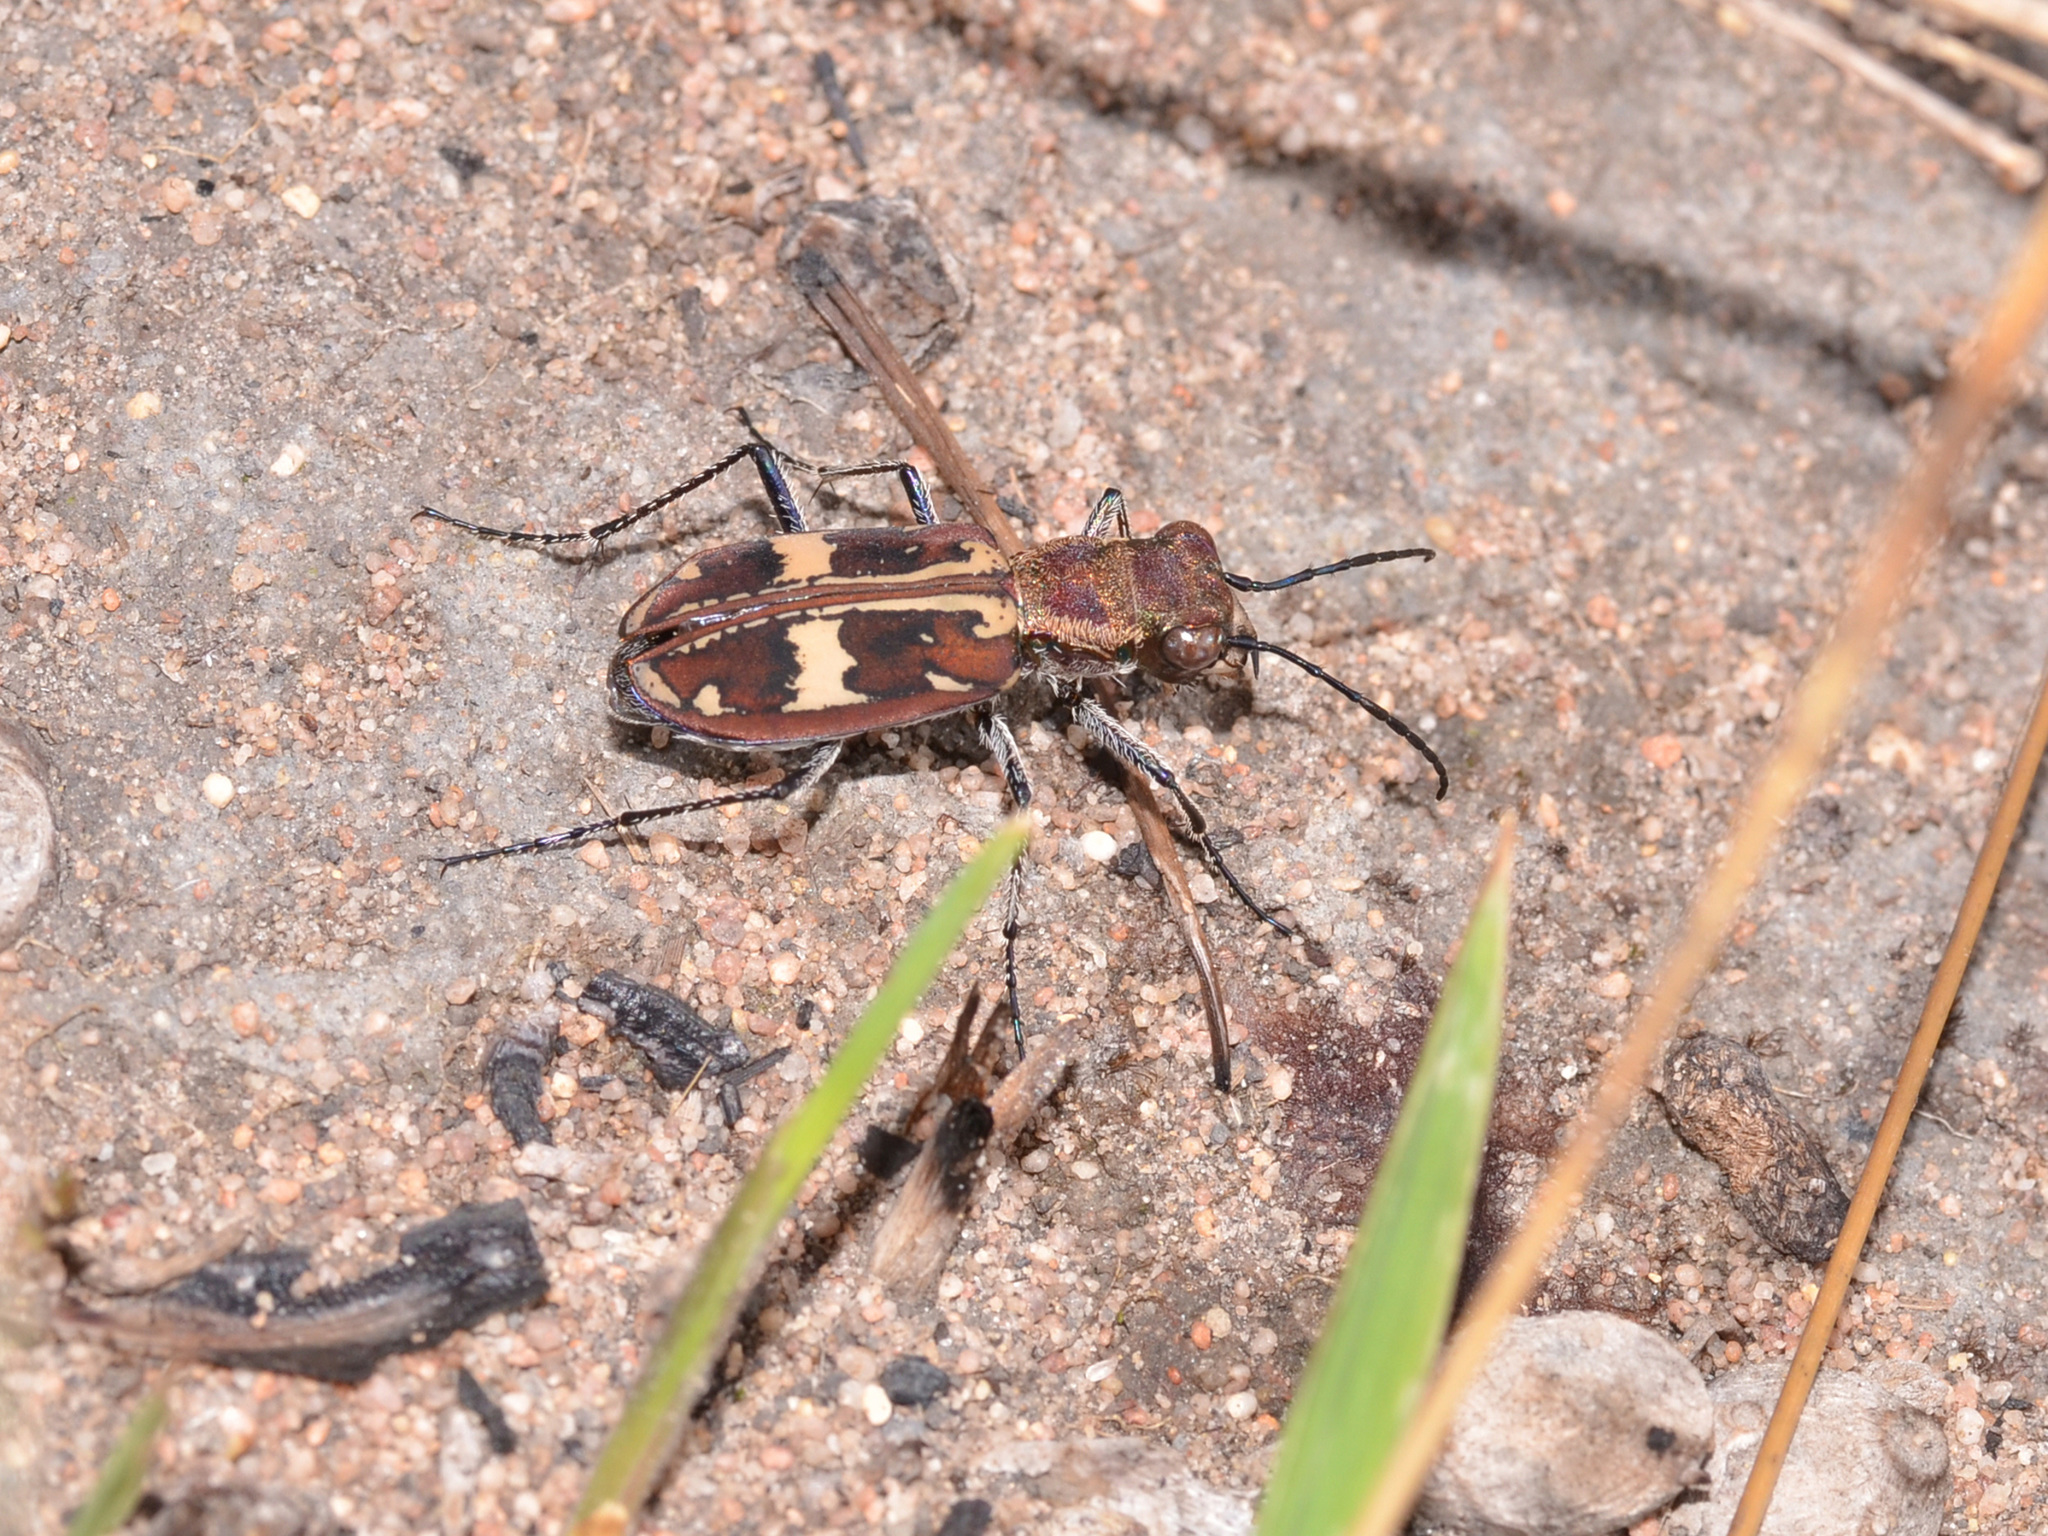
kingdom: Animalia
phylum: Arthropoda
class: Insecta
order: Coleoptera
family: Carabidae
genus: Cicindela
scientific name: Cicindela transversefasciata
